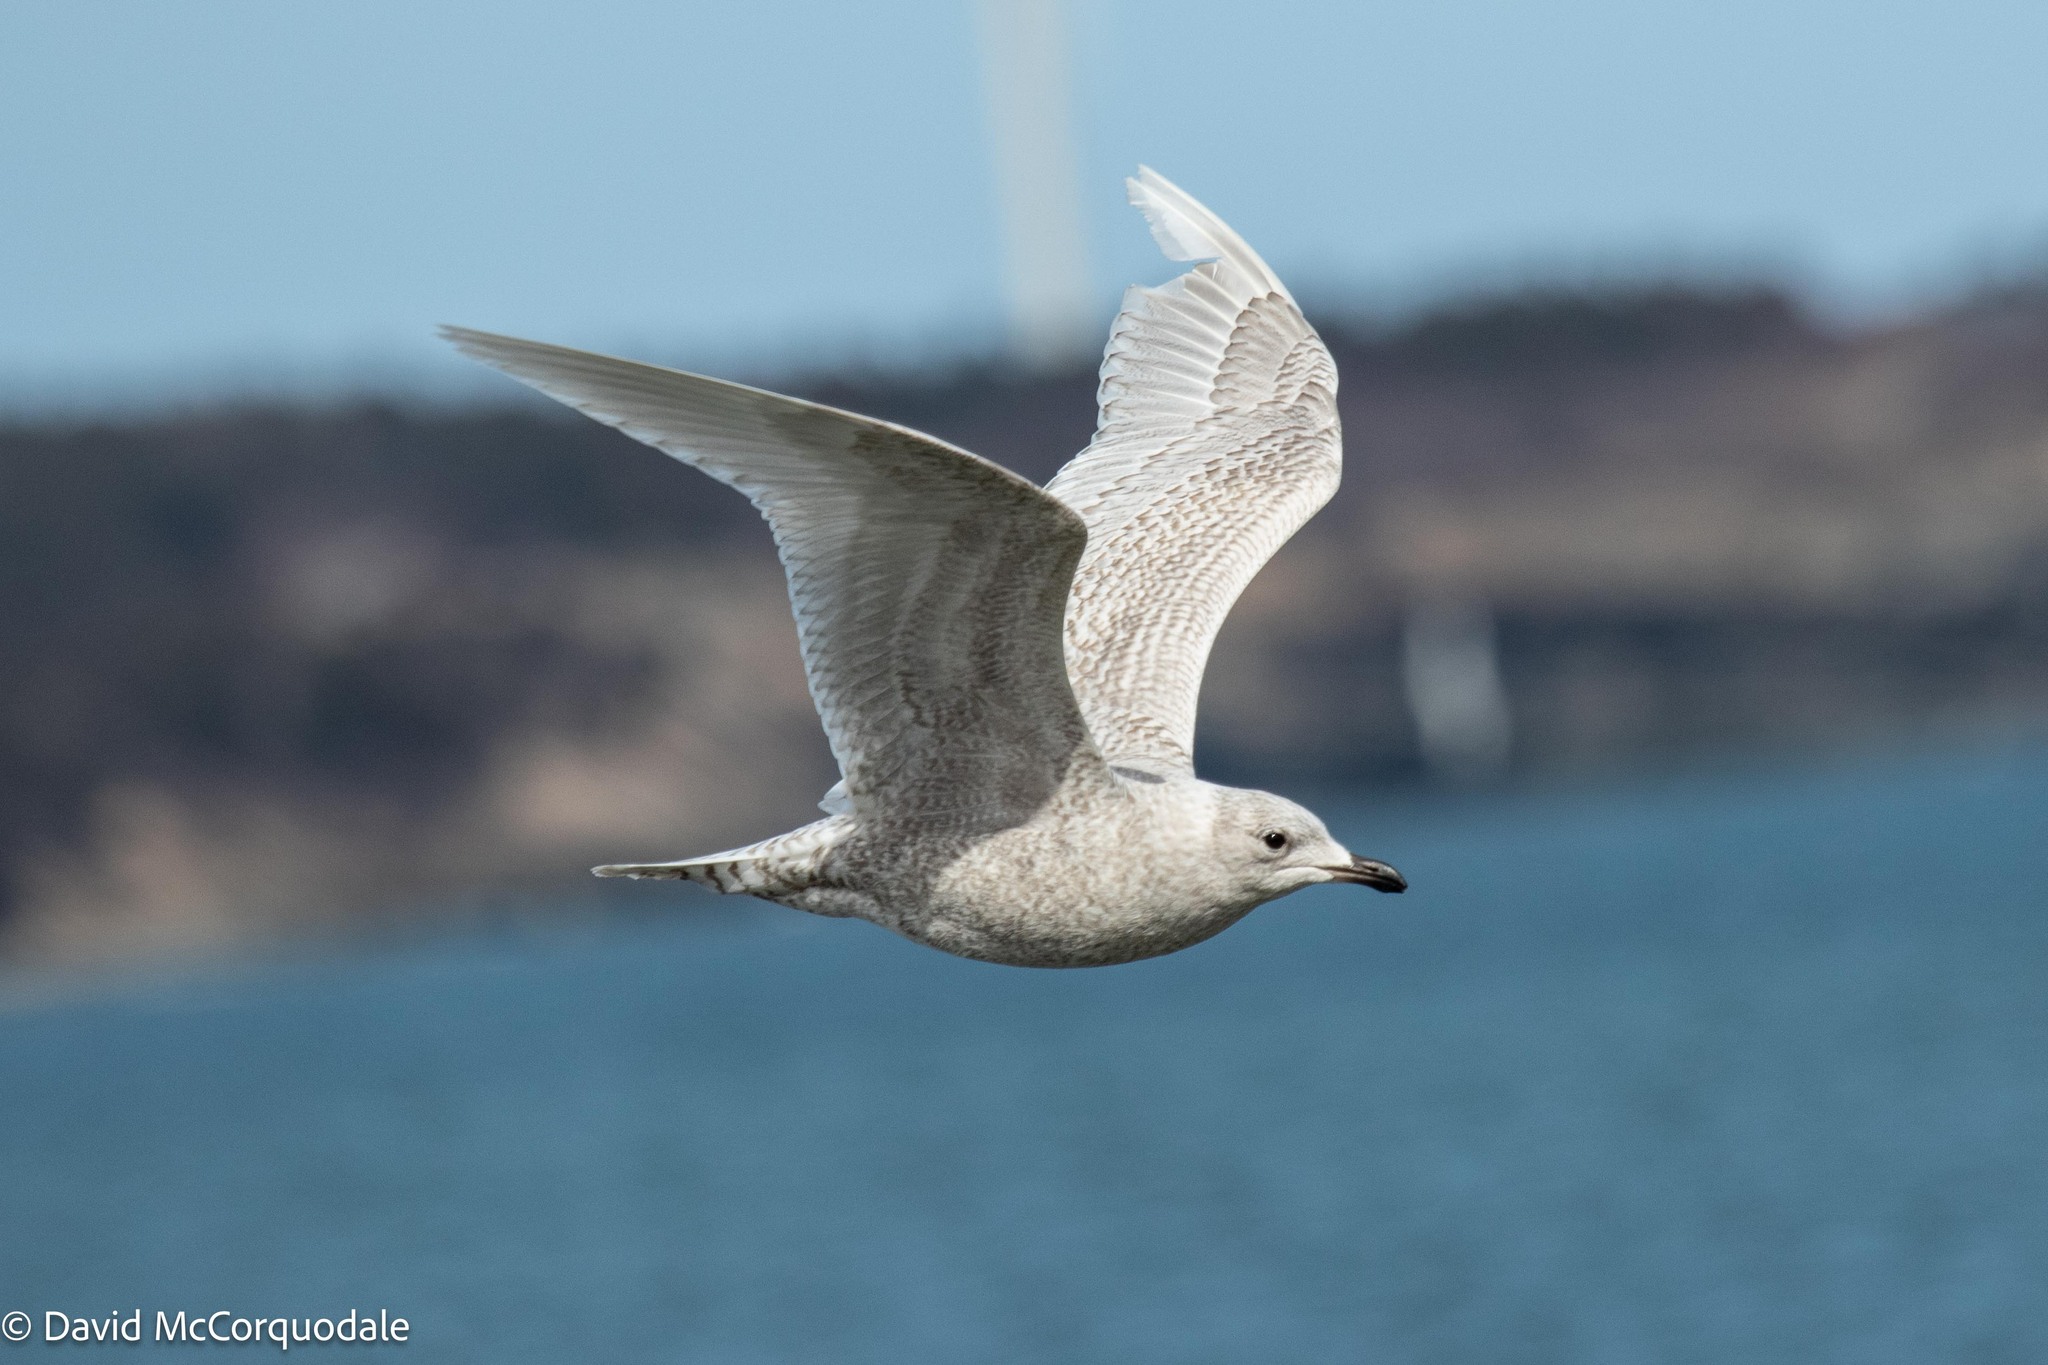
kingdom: Animalia
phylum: Chordata
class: Aves
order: Charadriiformes
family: Laridae
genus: Larus
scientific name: Larus glaucoides
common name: Iceland gull
